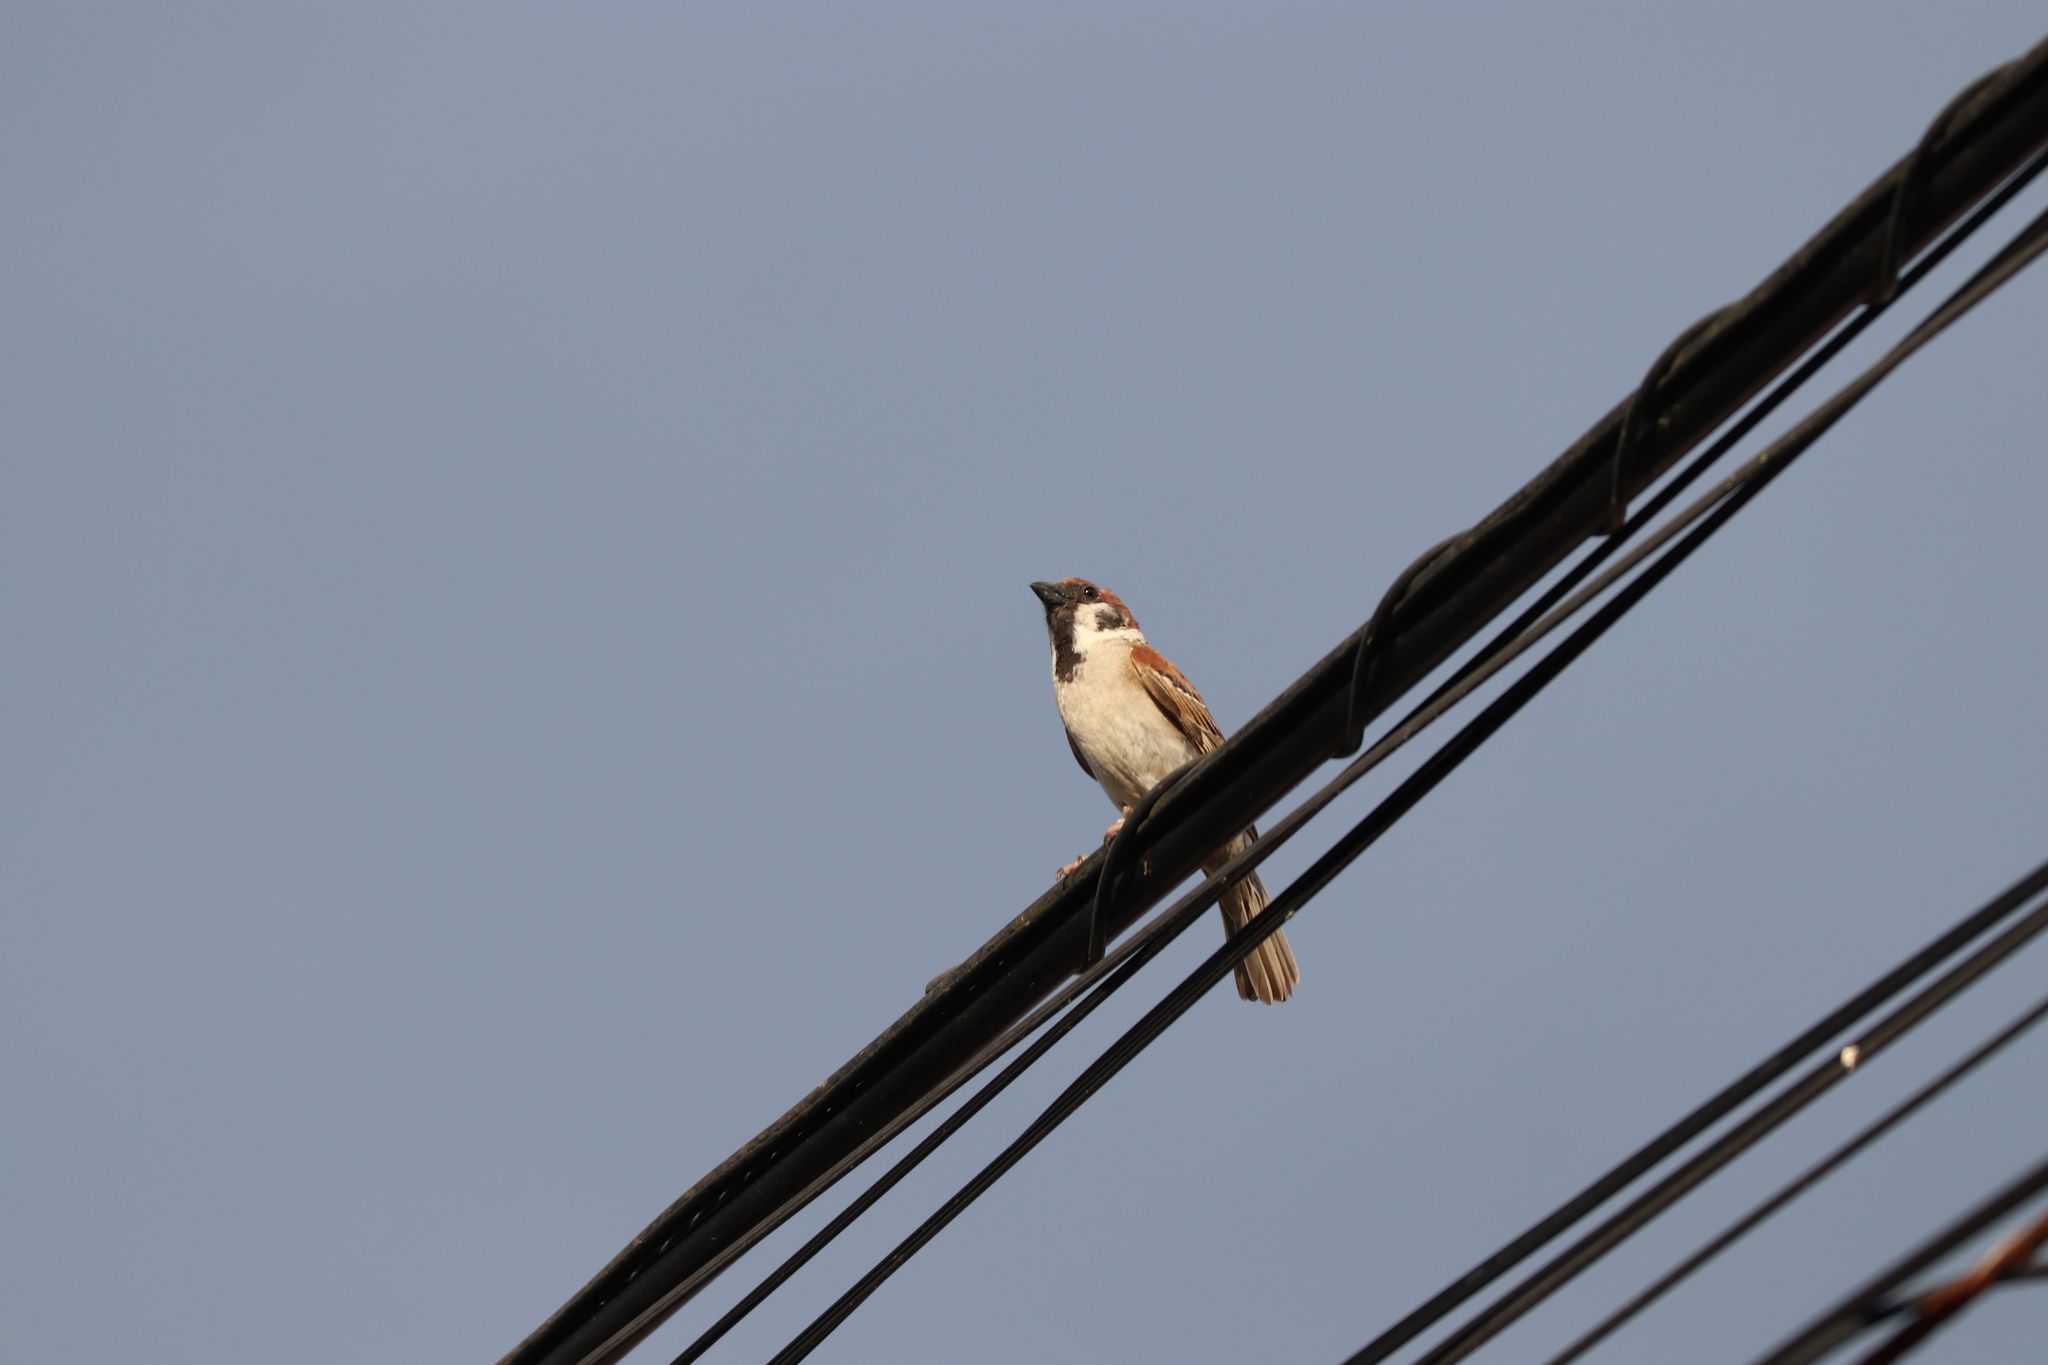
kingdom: Animalia
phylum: Chordata
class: Aves
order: Passeriformes
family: Passeridae
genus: Passer
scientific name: Passer montanus
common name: Eurasian tree sparrow
